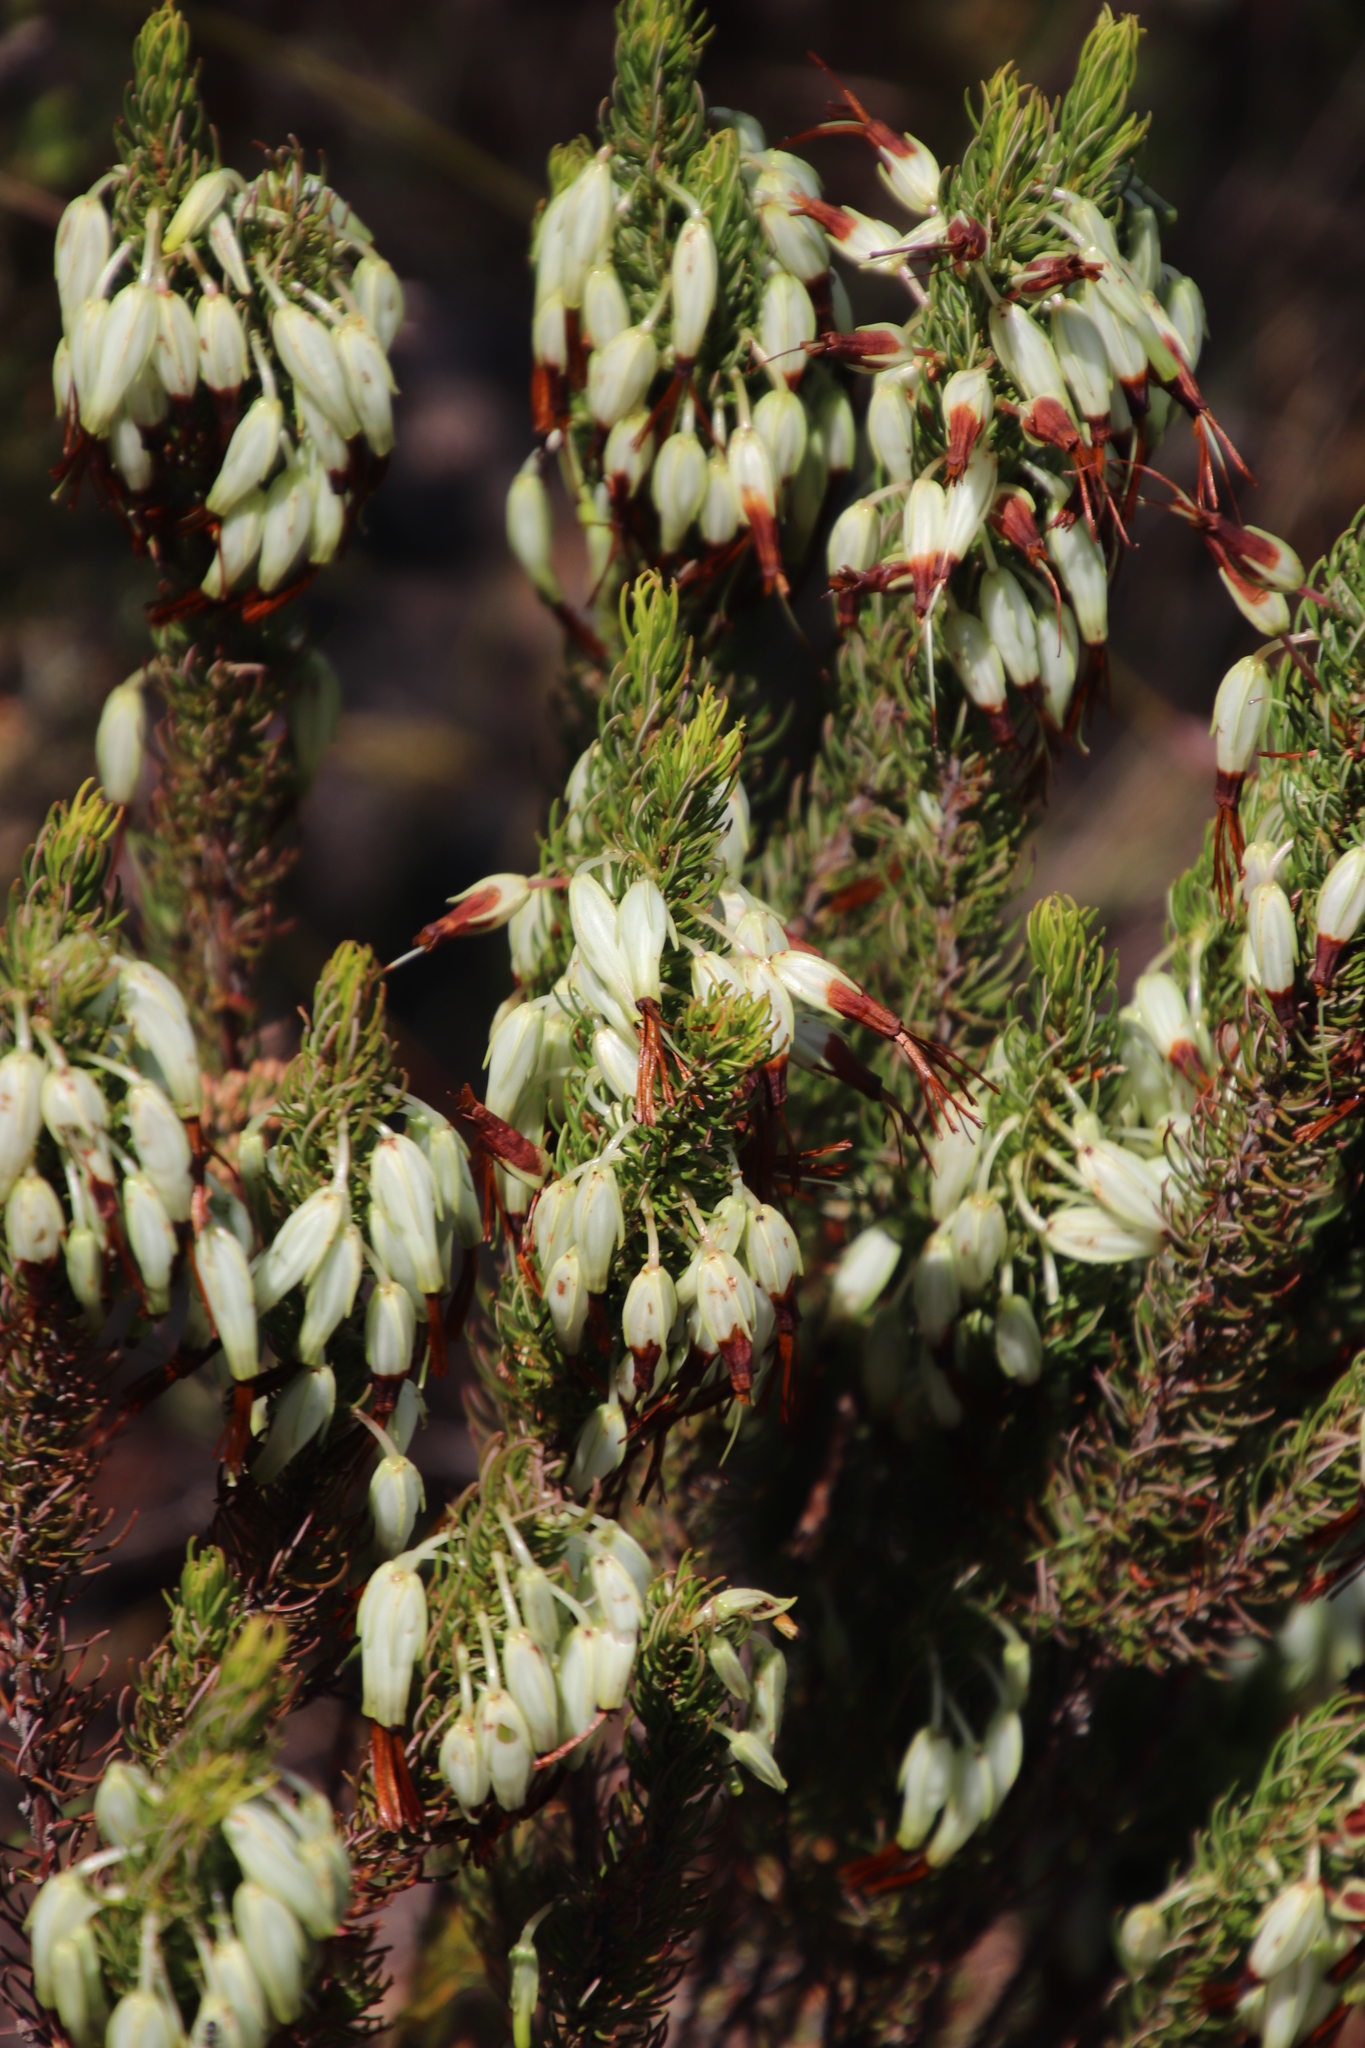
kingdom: Plantae
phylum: Tracheophyta
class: Magnoliopsida
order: Ericales
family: Ericaceae
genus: Erica
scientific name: Erica plukenetii
